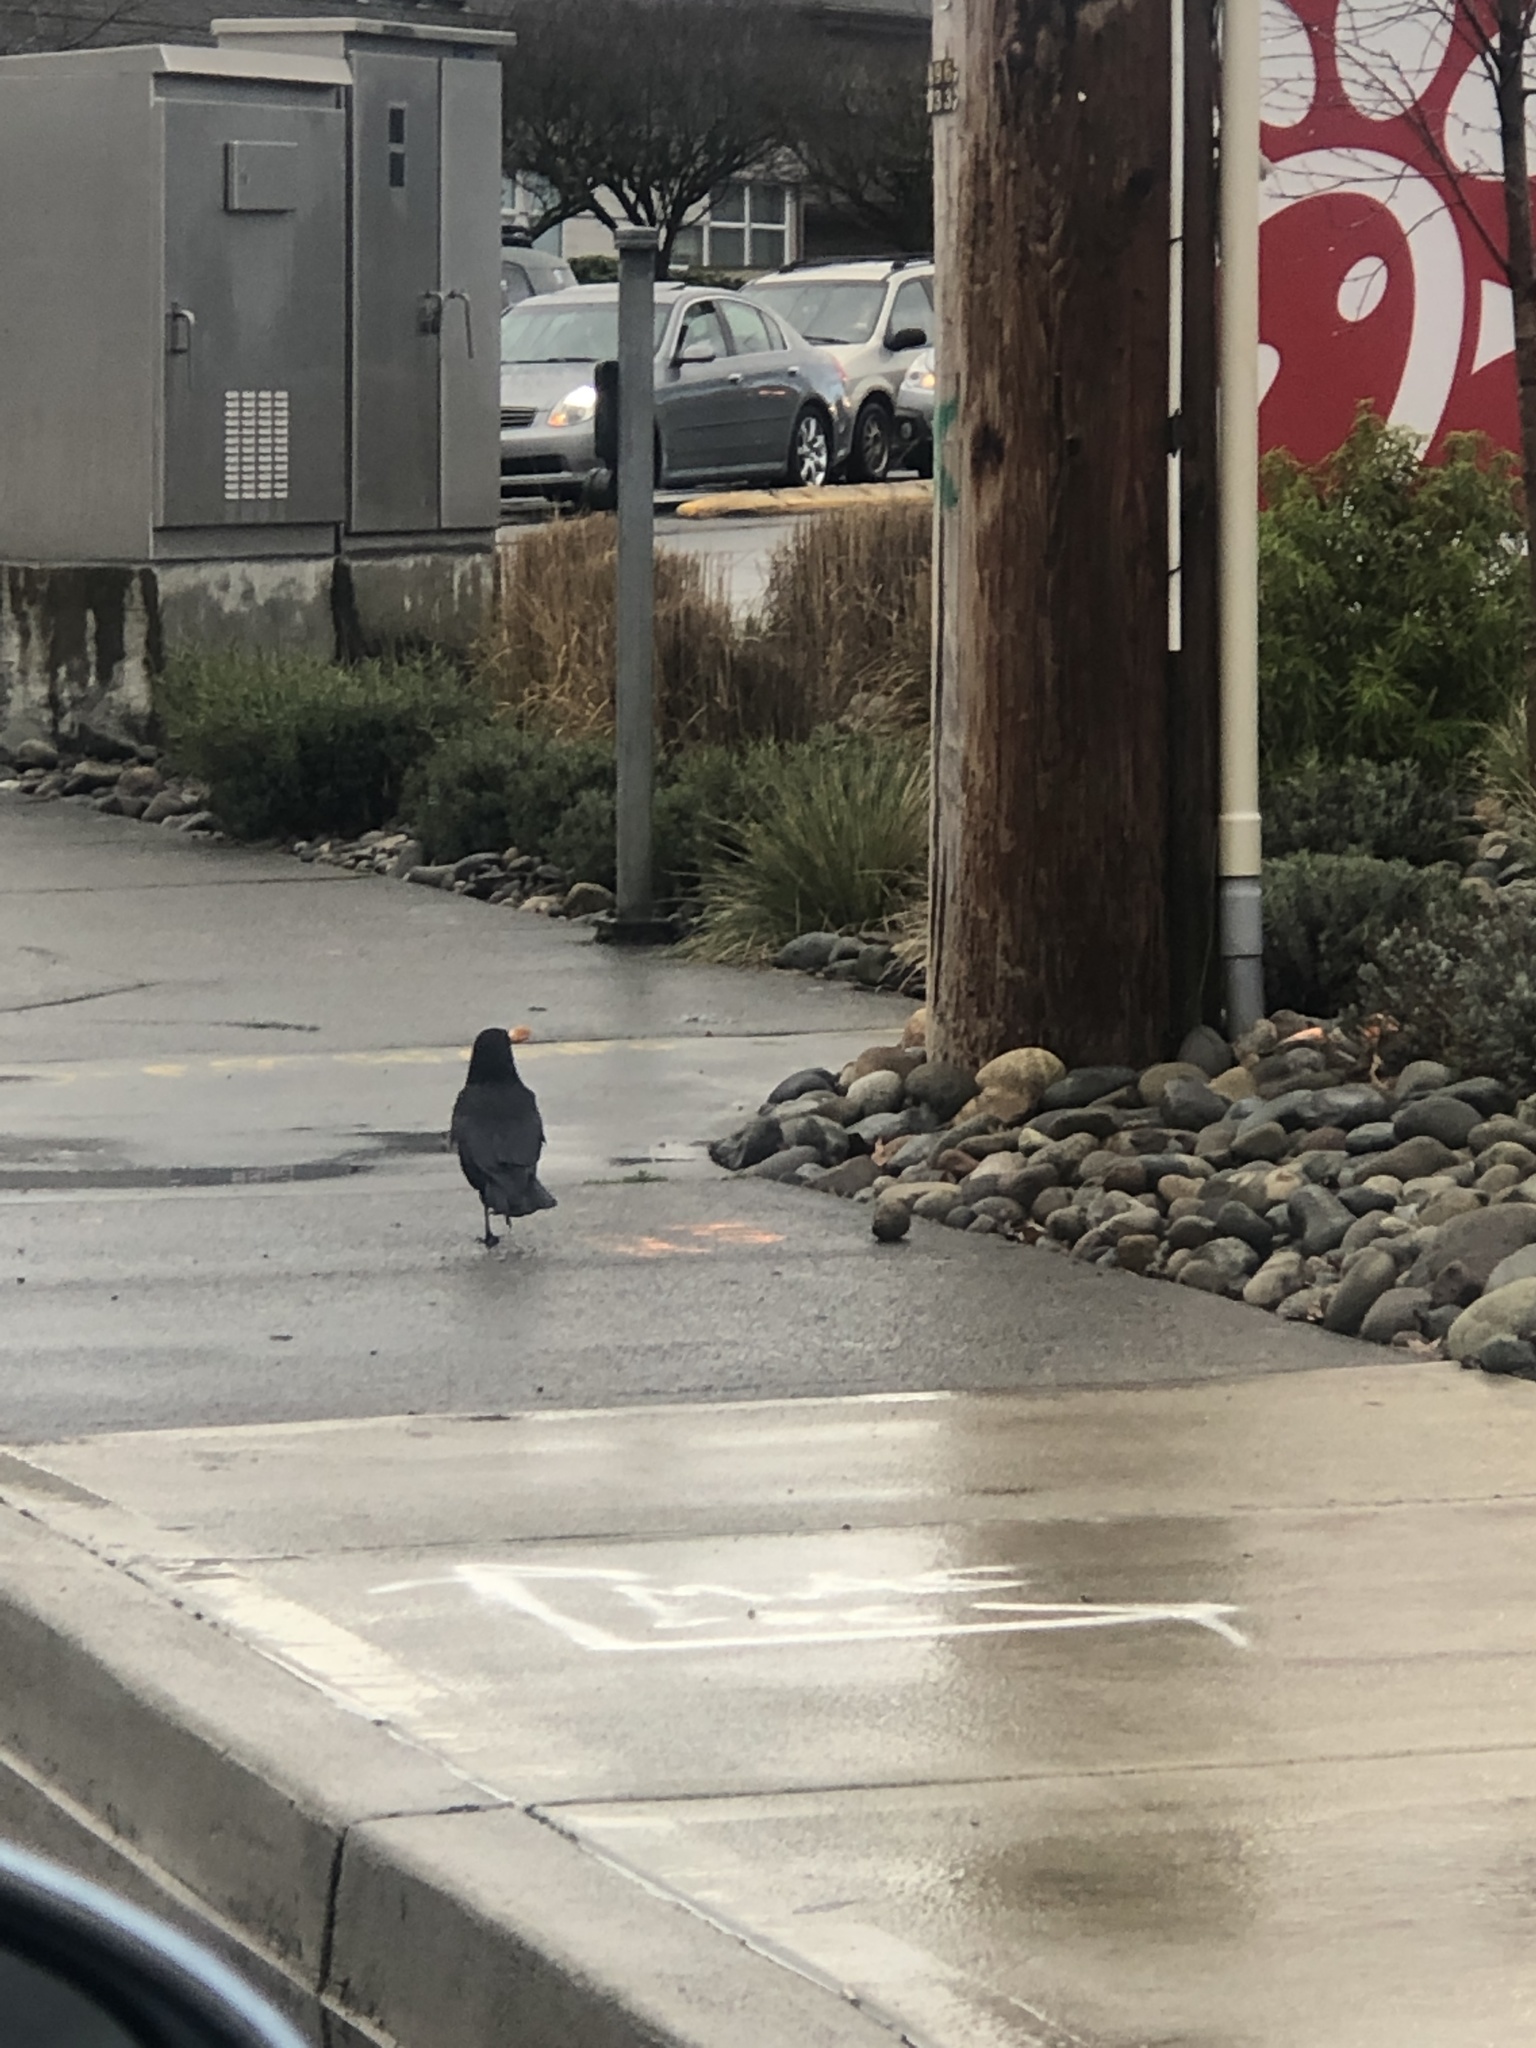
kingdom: Animalia
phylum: Chordata
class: Aves
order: Passeriformes
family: Corvidae
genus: Corvus
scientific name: Corvus brachyrhynchos
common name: American crow
